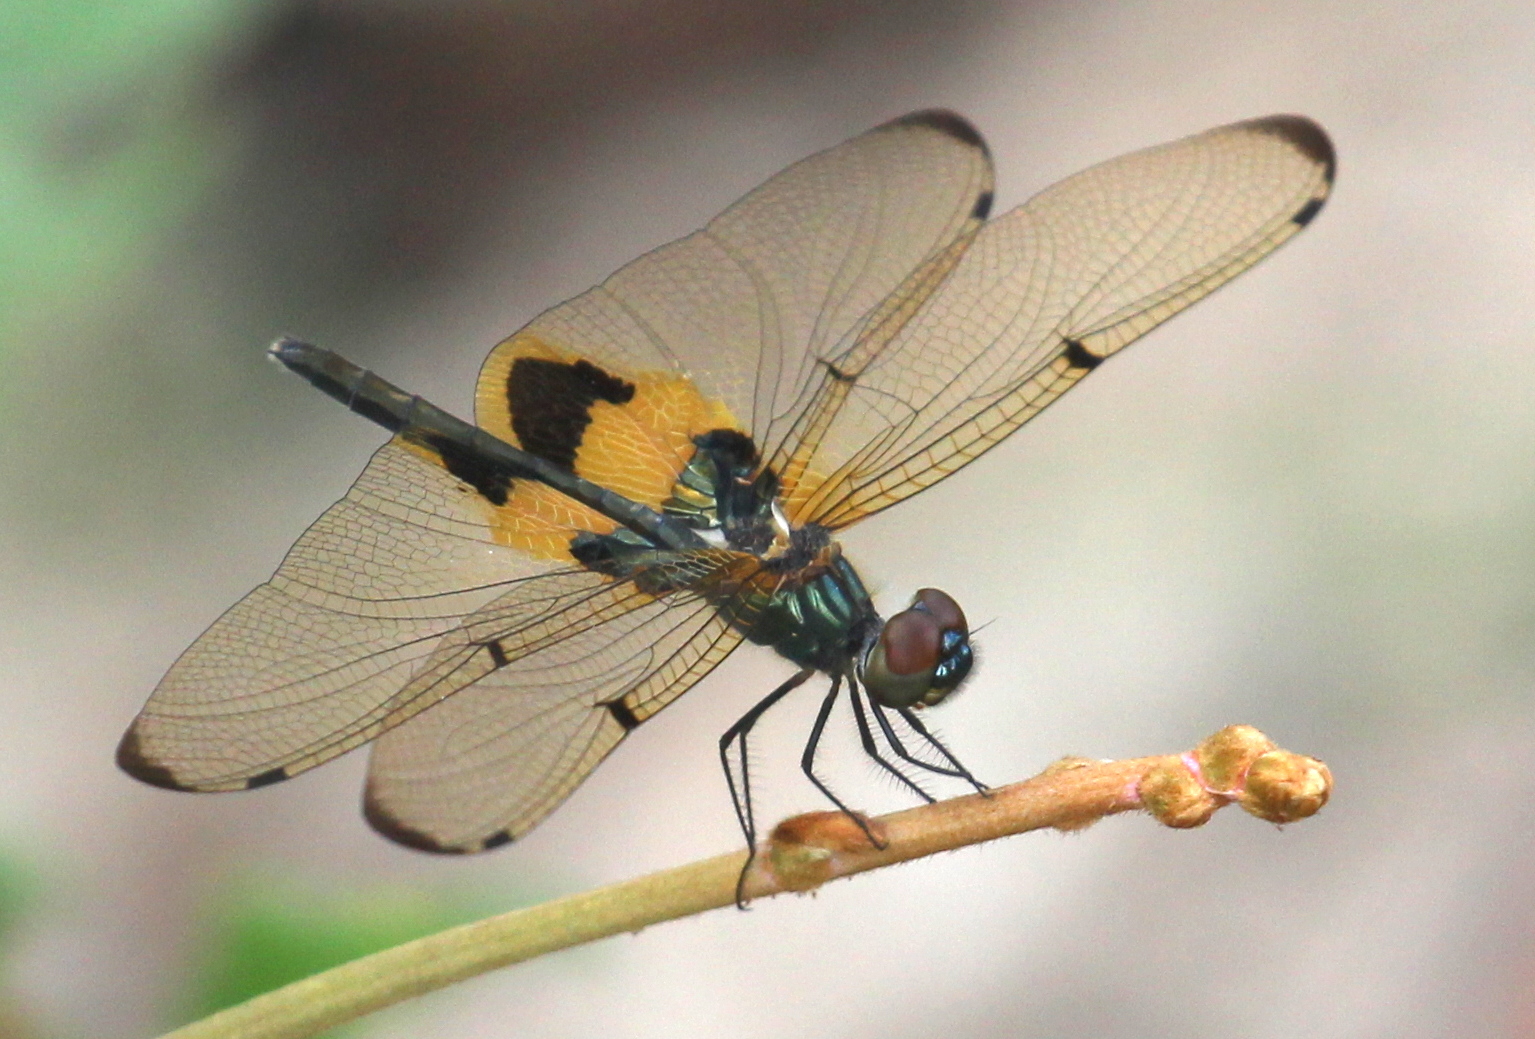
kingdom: Animalia
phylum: Arthropoda
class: Insecta
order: Odonata
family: Libellulidae
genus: Rhyothemis
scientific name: Rhyothemis phyllis
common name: Yellow-barred flutterer
